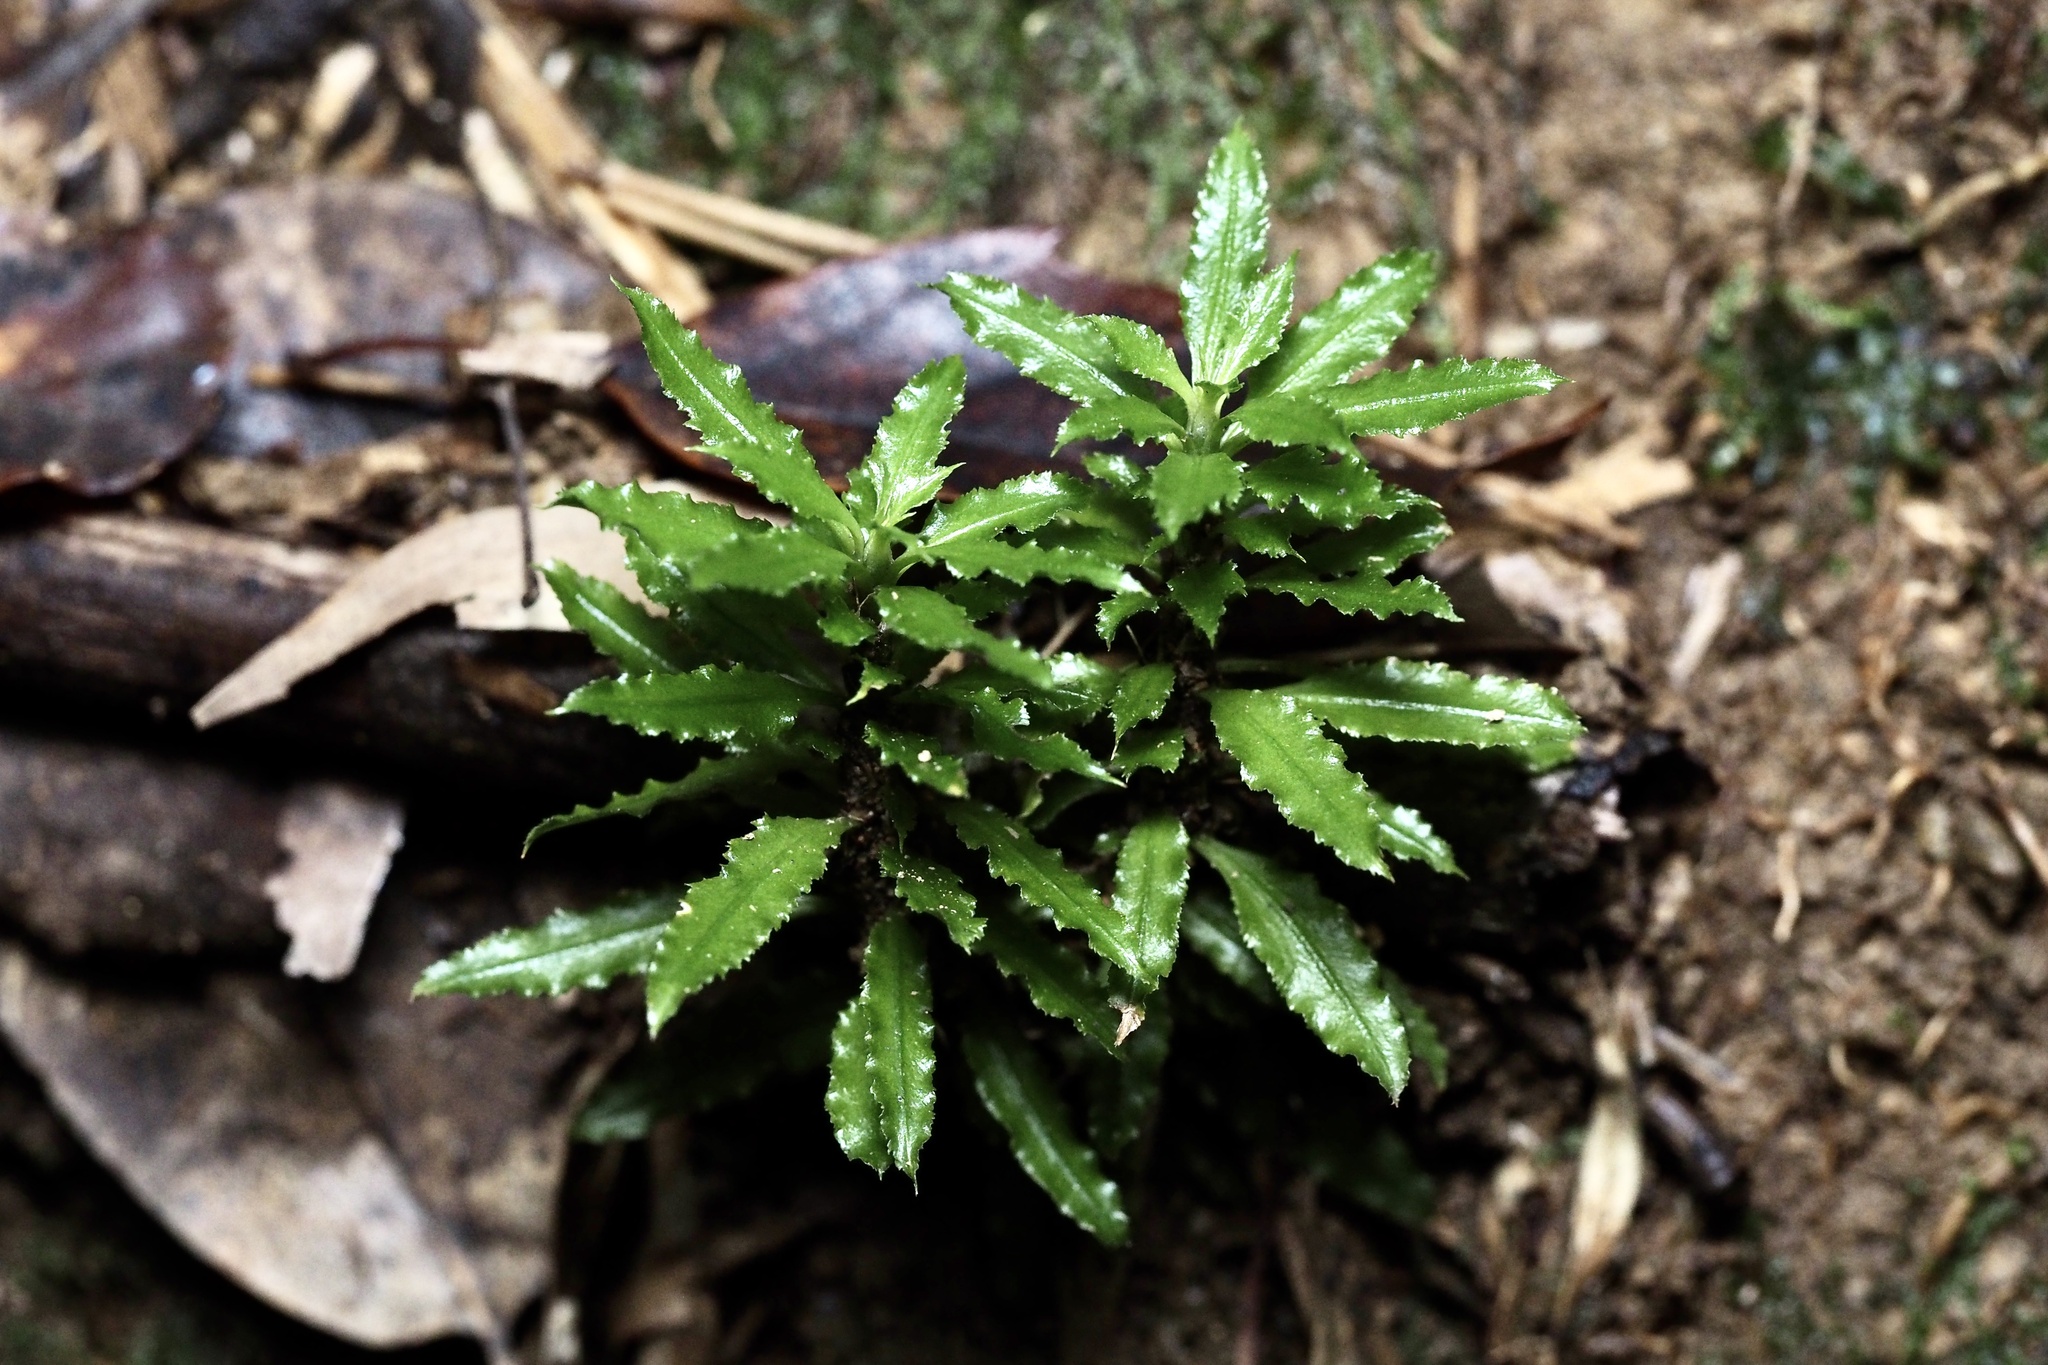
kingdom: Plantae
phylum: Tracheophyta
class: Lycopodiopsida
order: Lycopodiales
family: Lycopodiaceae
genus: Huperzia
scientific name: Huperzia serrata
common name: Toothed club-moss
